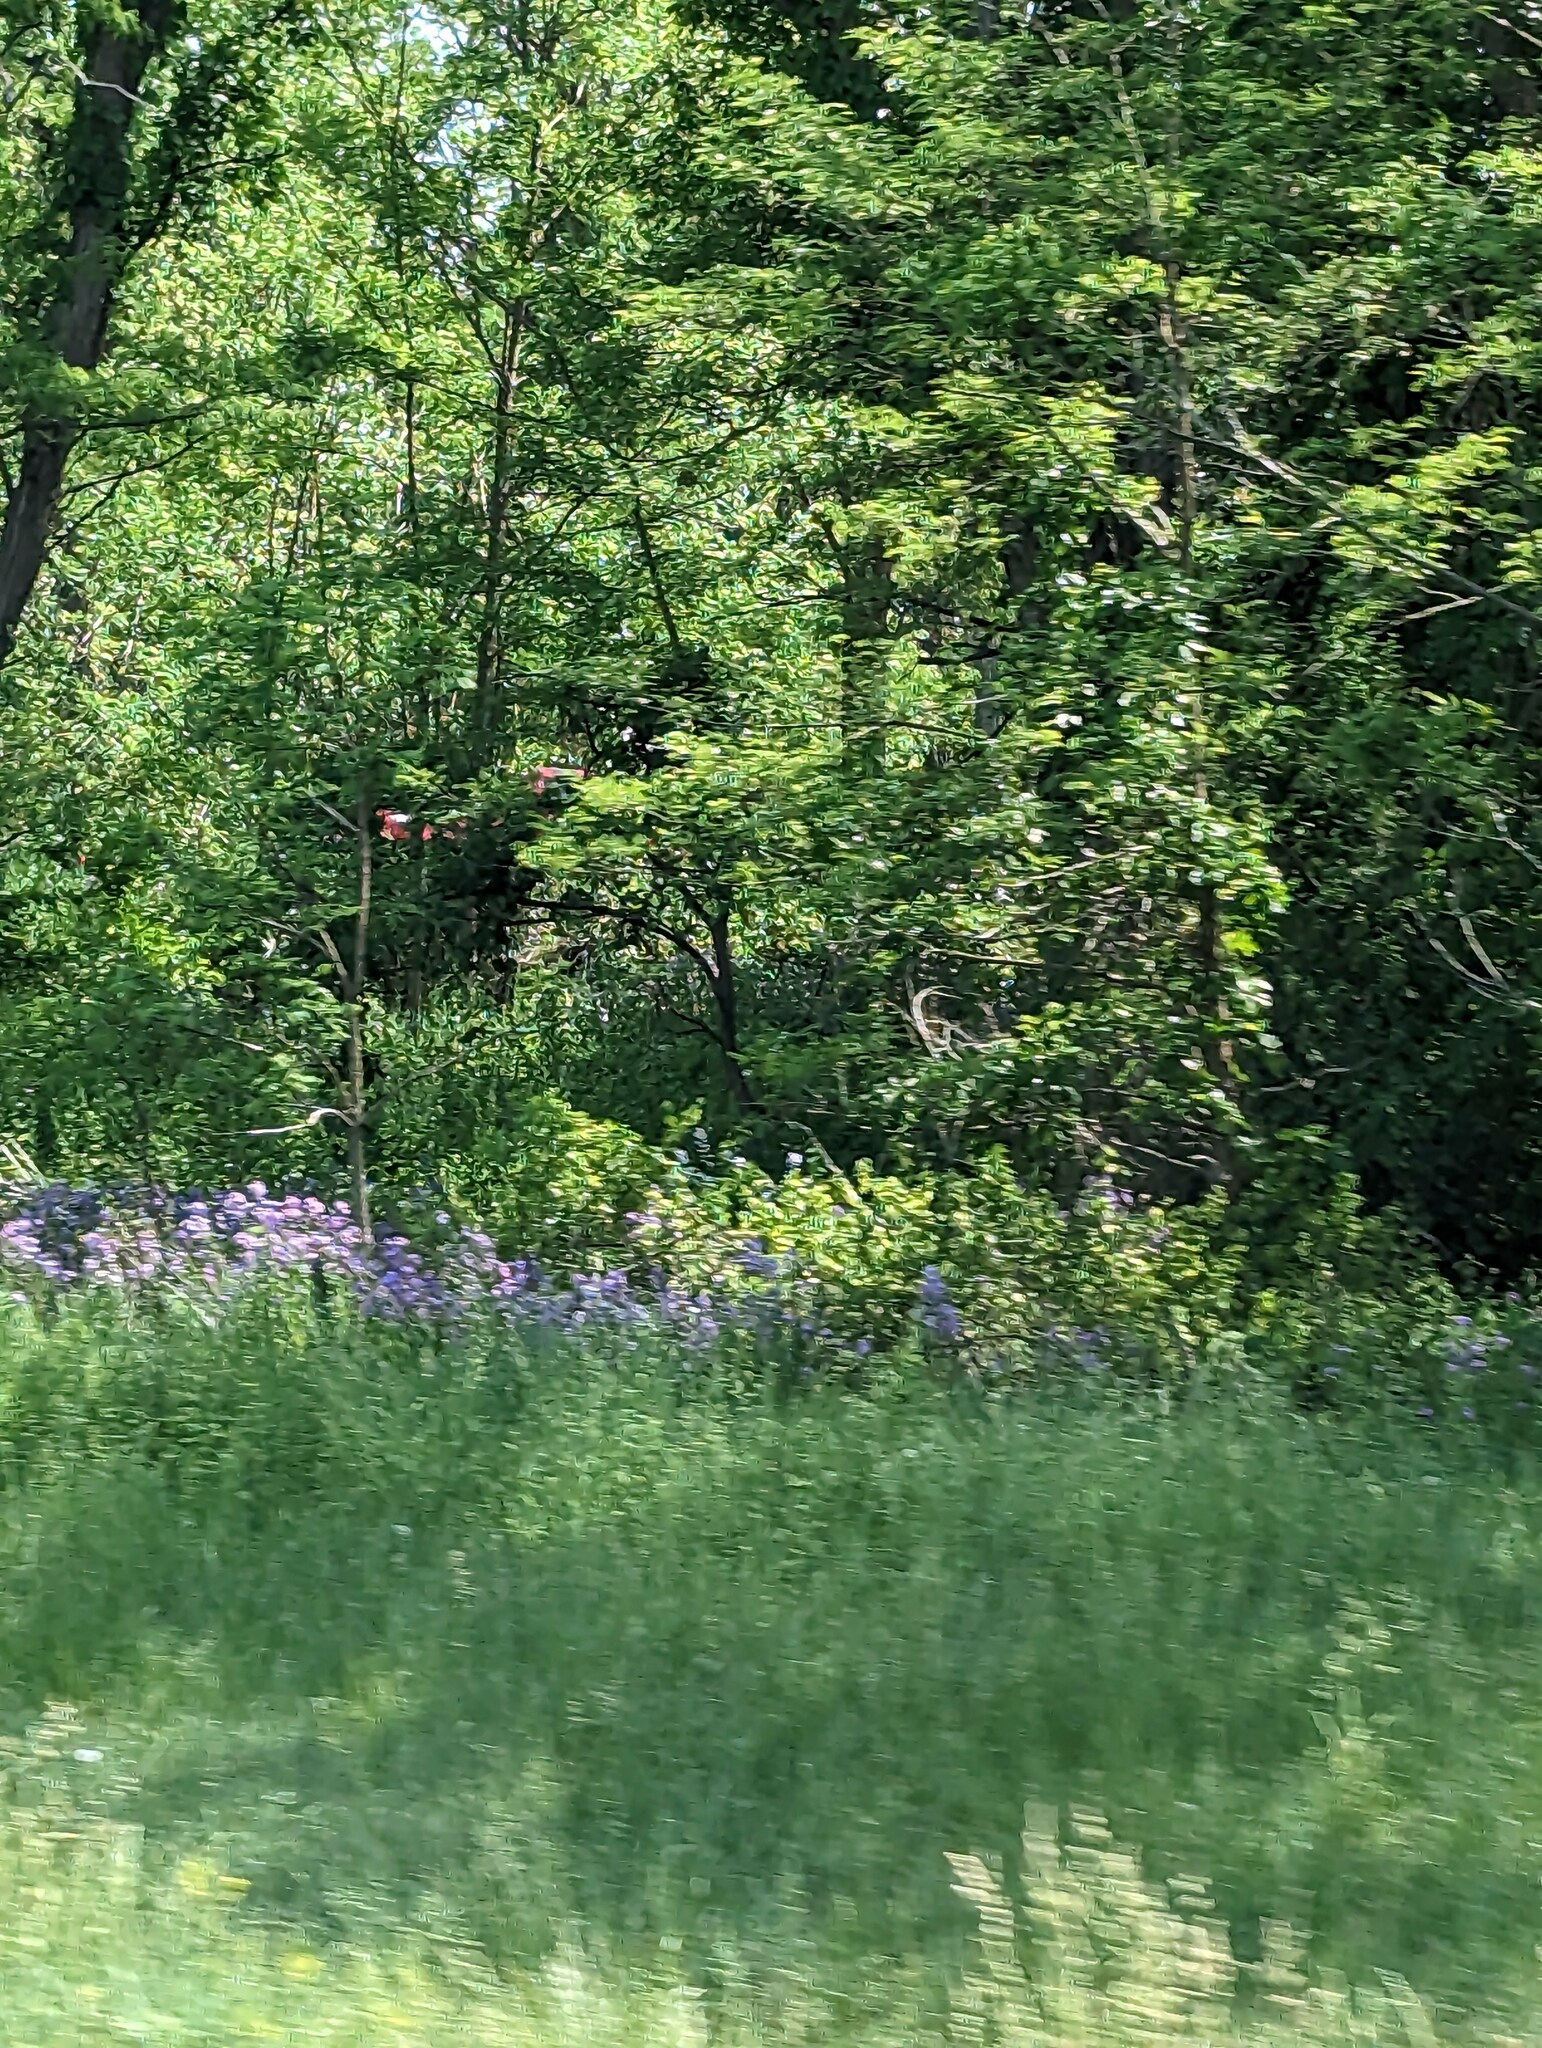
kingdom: Plantae
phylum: Tracheophyta
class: Magnoliopsida
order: Brassicales
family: Brassicaceae
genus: Hesperis
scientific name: Hesperis matronalis
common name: Dame's-violet
